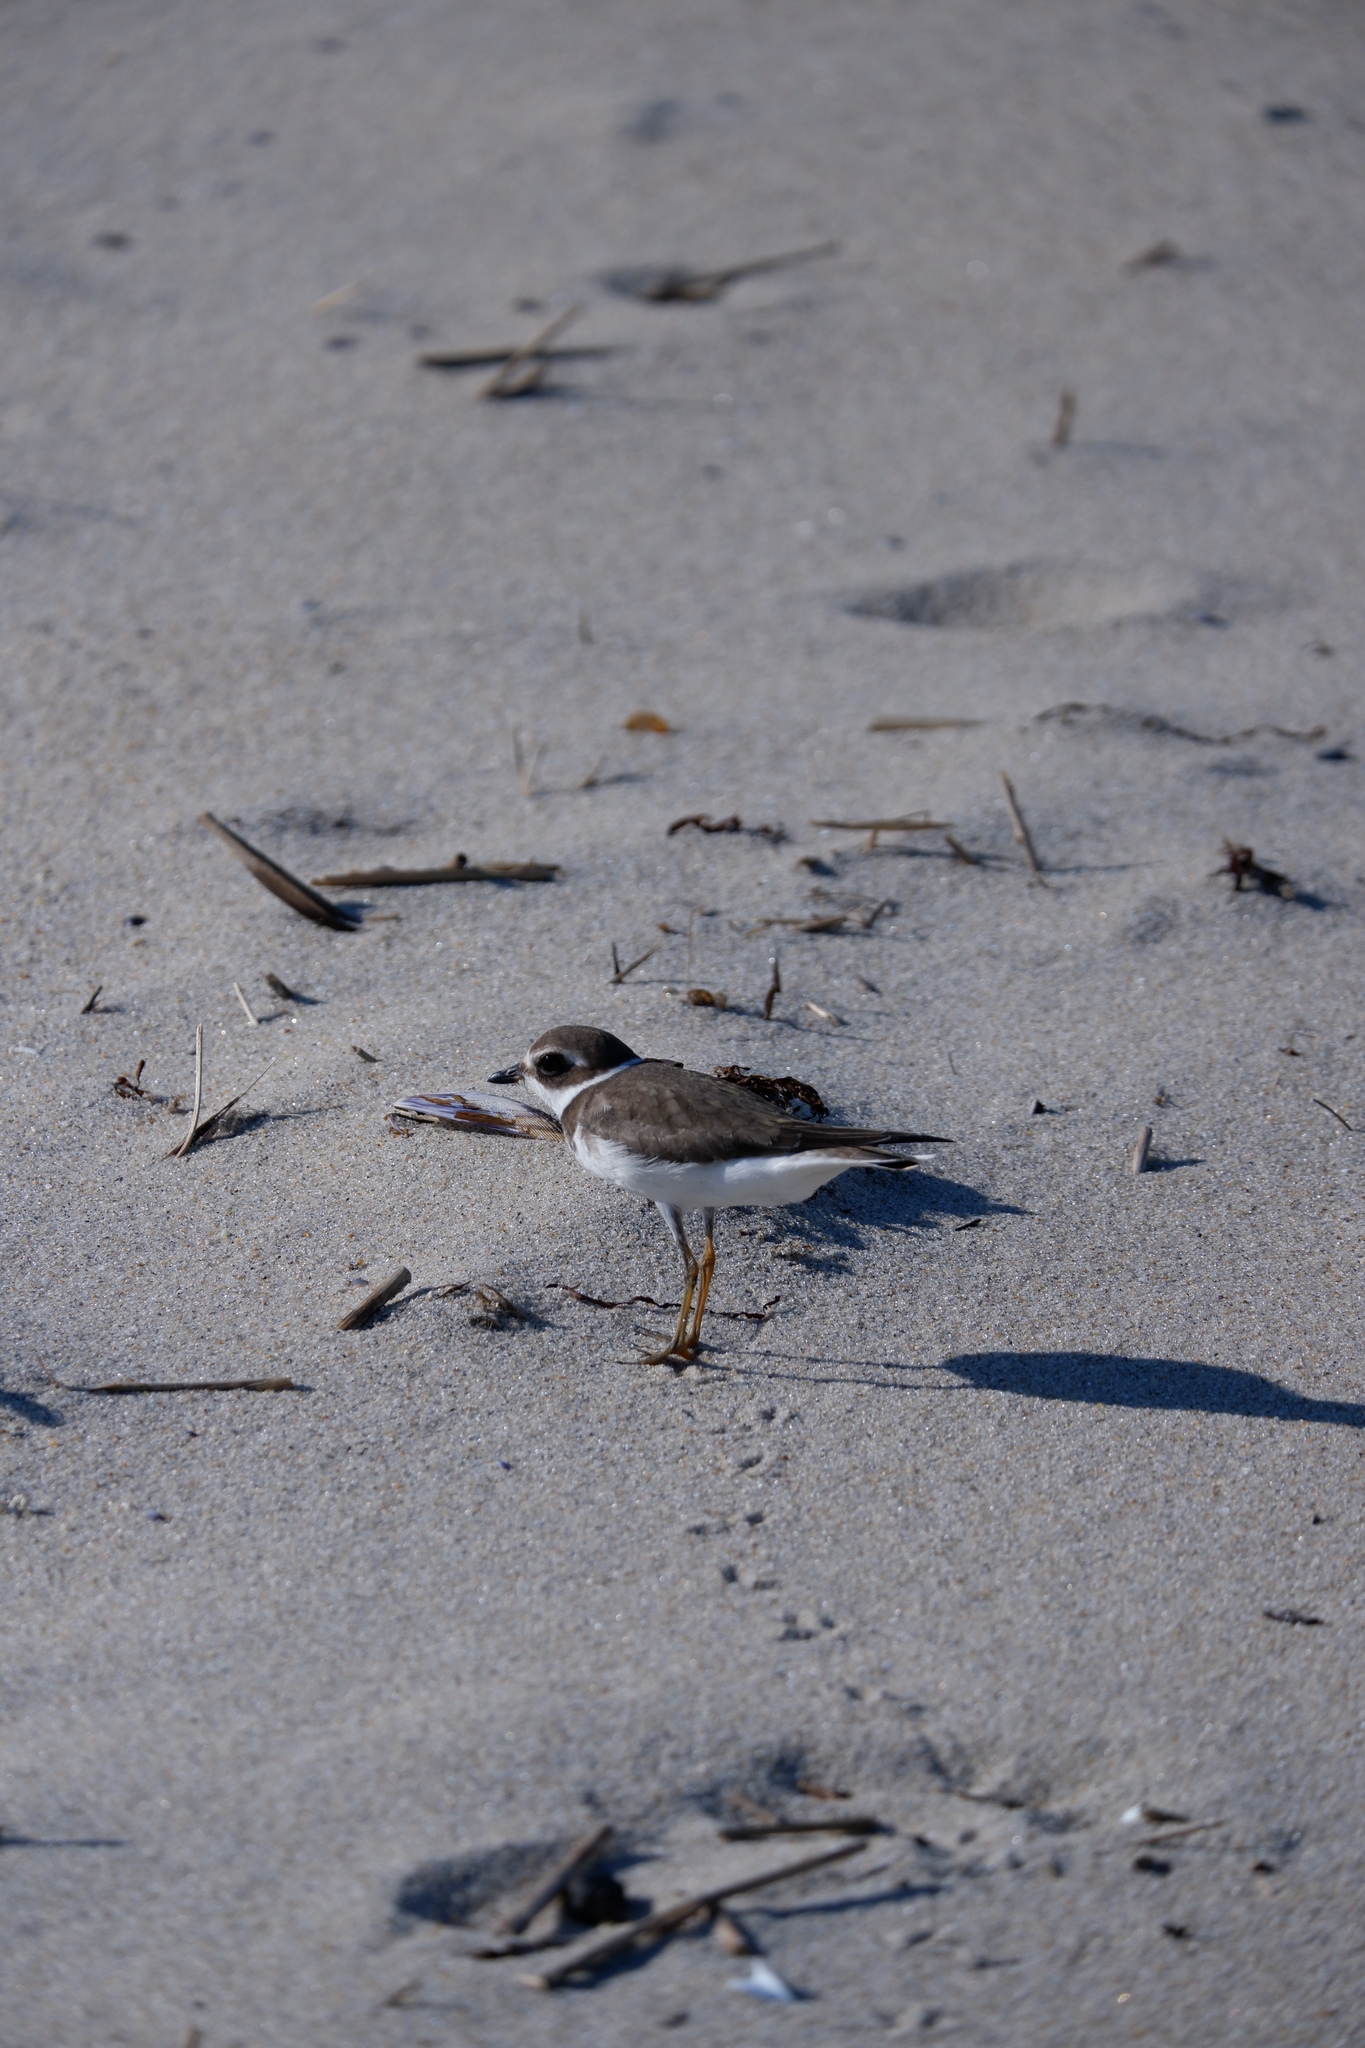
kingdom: Animalia
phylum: Chordata
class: Aves
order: Charadriiformes
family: Charadriidae
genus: Charadrius
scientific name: Charadrius semipalmatus
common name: Semipalmated plover
